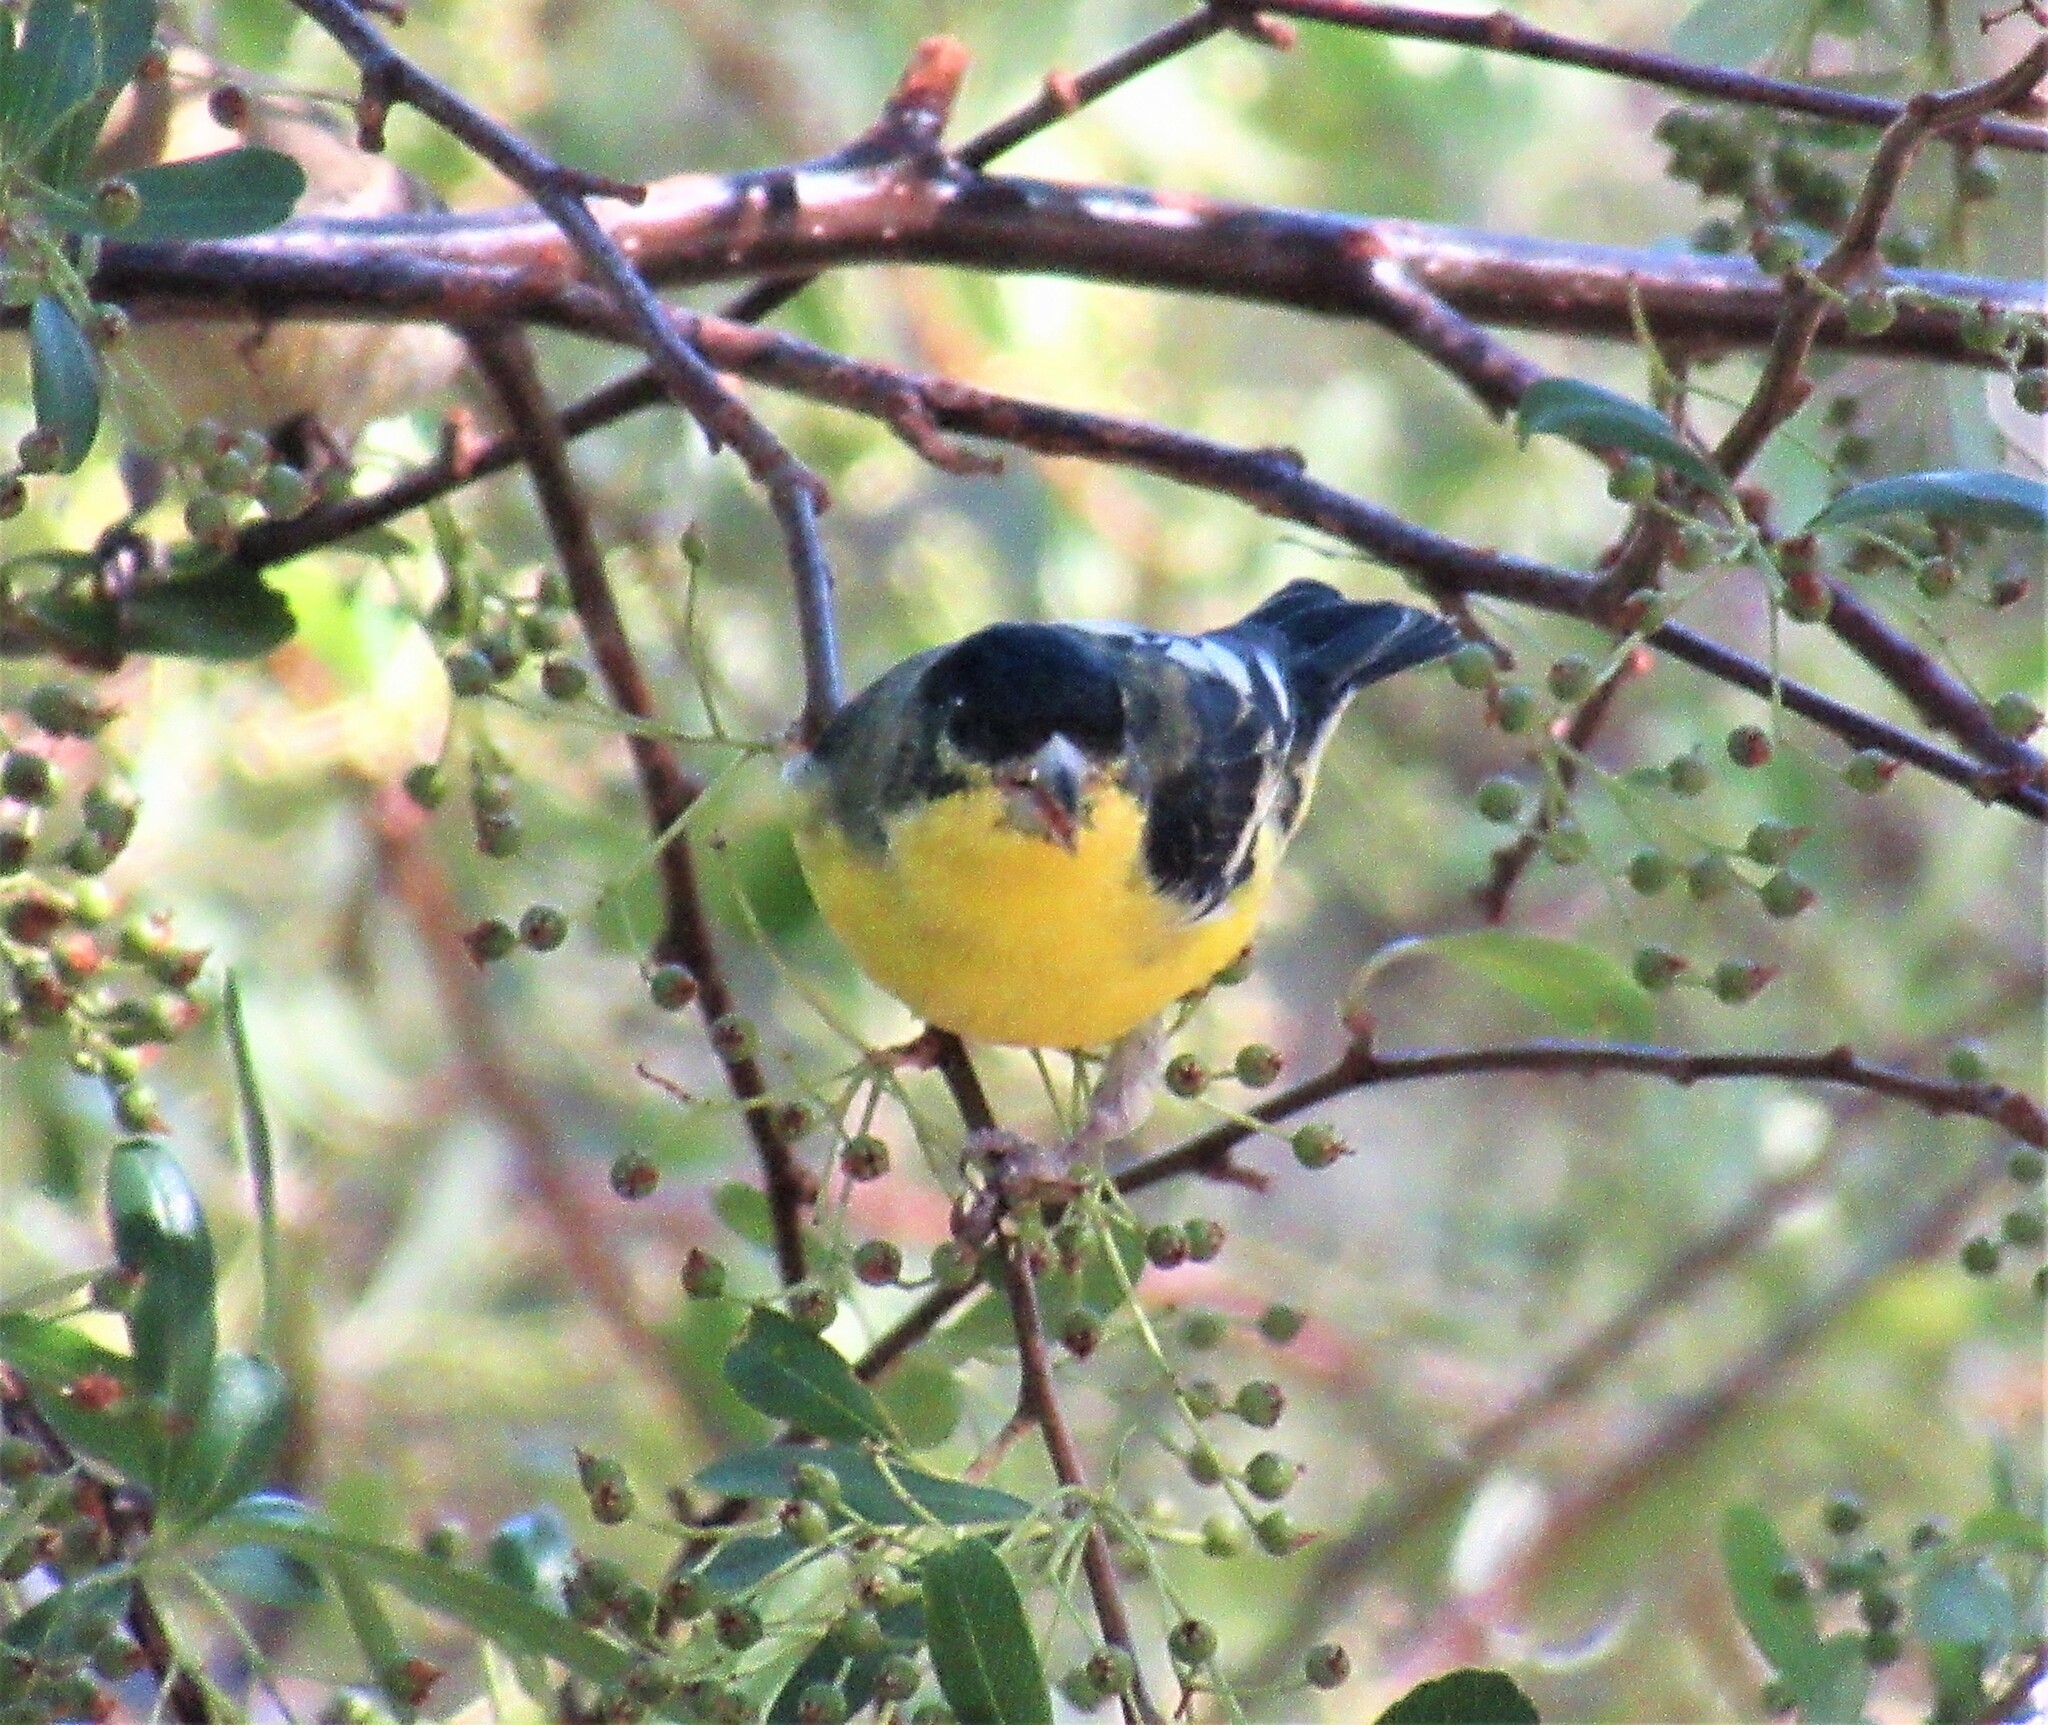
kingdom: Animalia
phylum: Chordata
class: Aves
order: Passeriformes
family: Fringillidae
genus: Spinus
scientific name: Spinus psaltria
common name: Lesser goldfinch
